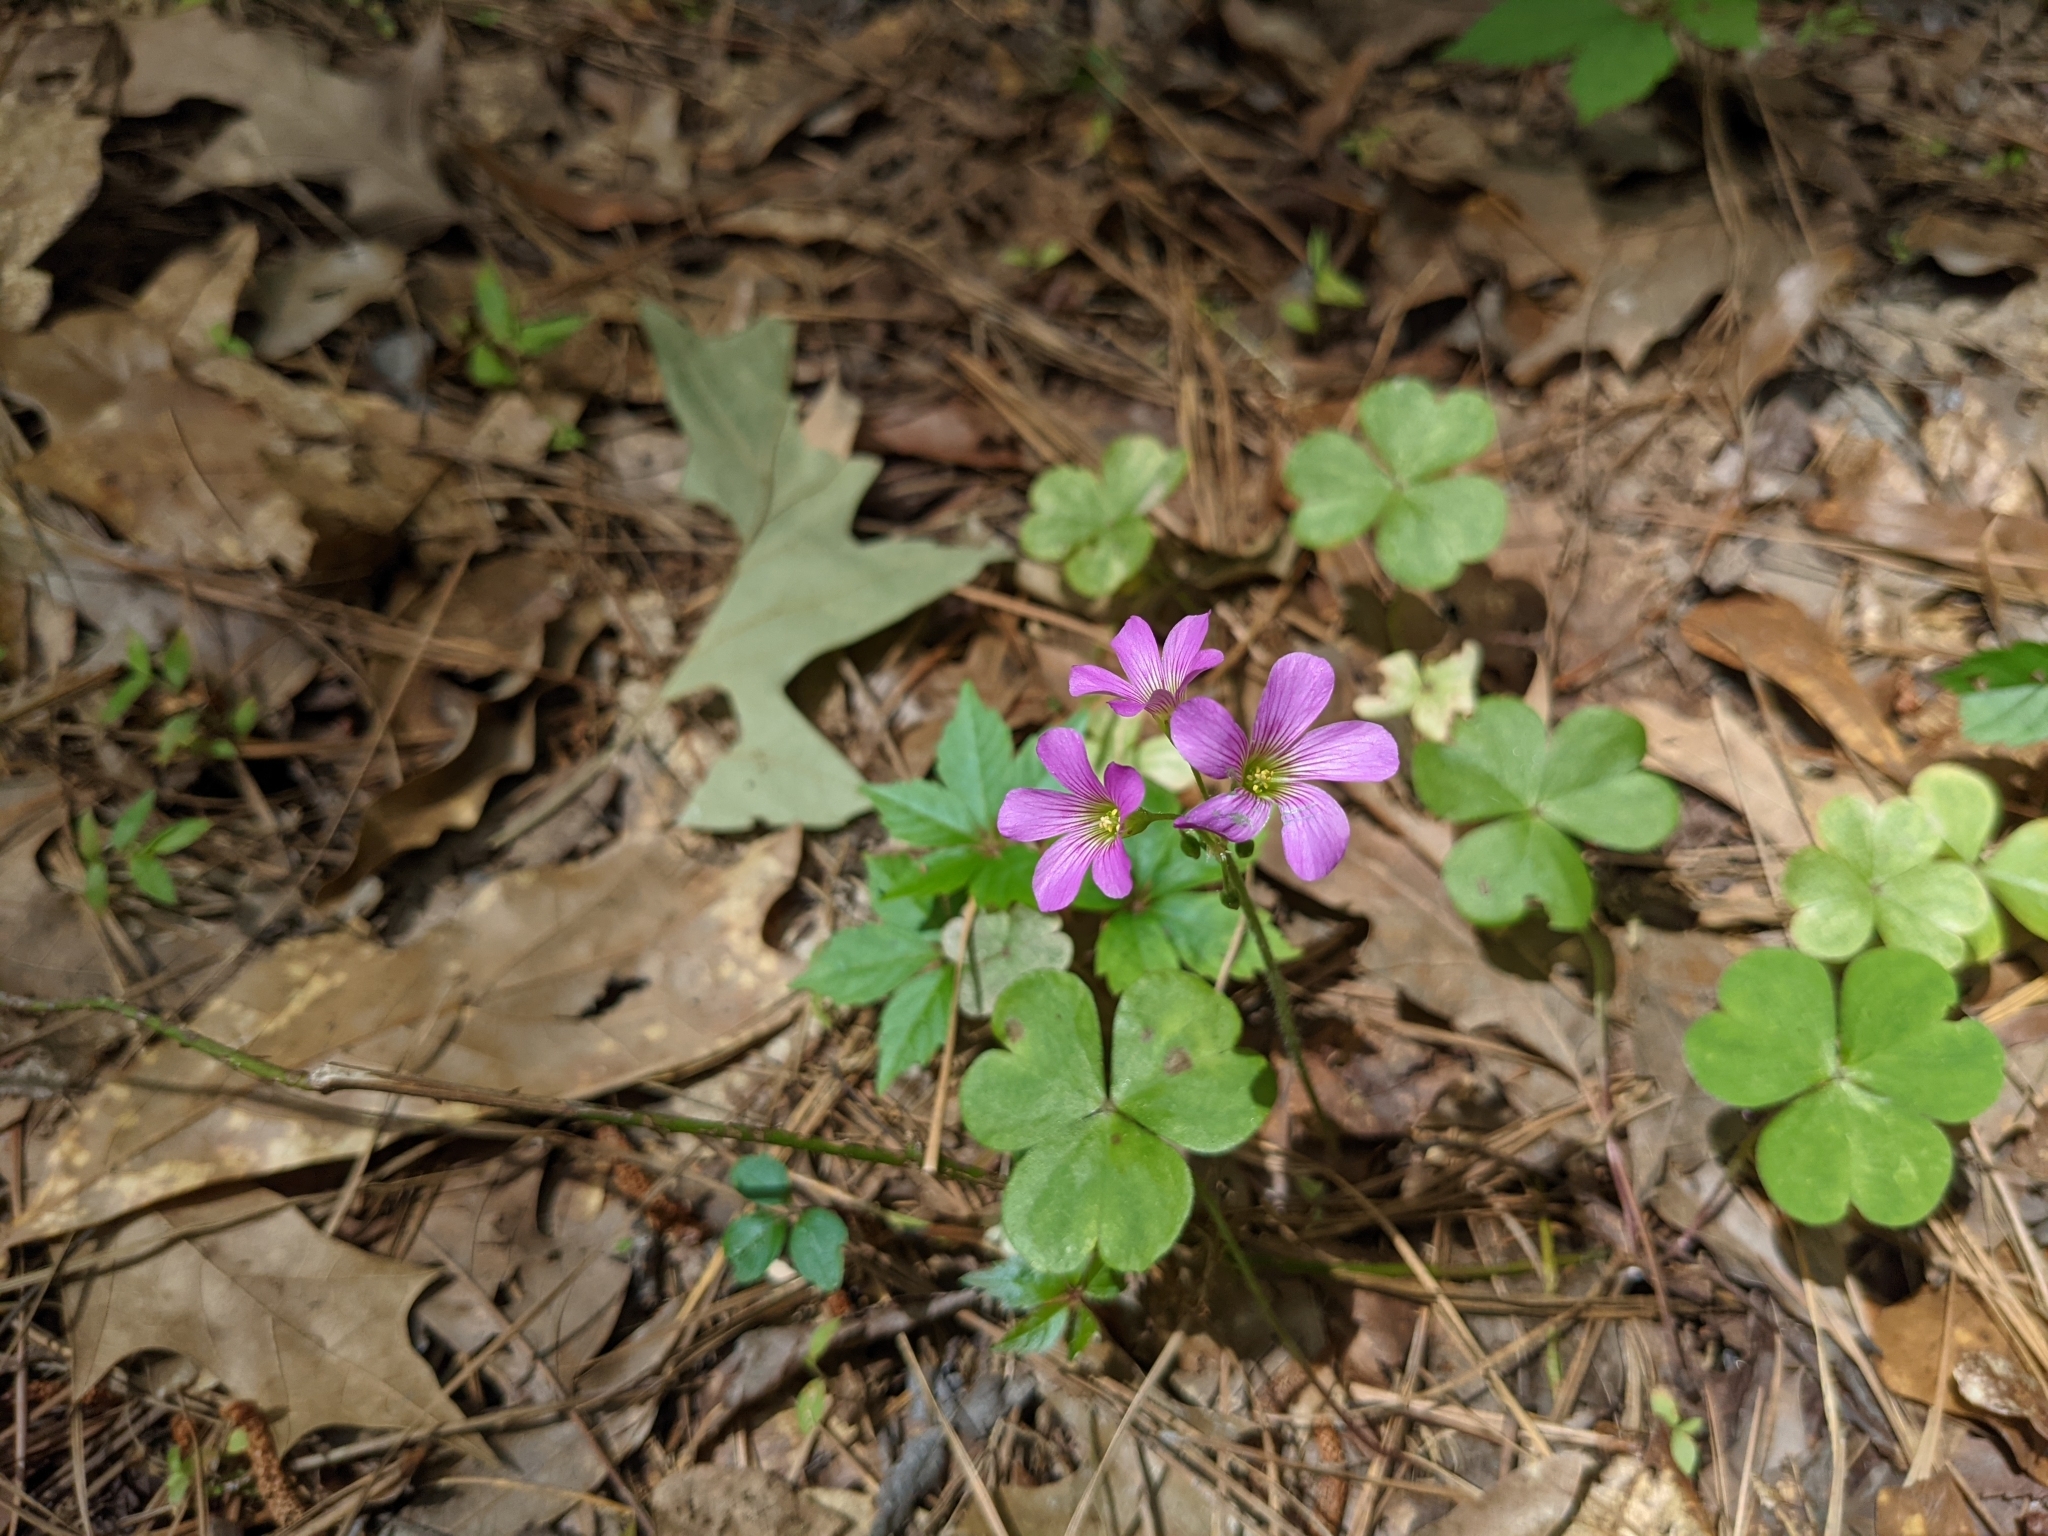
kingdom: Plantae
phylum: Tracheophyta
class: Magnoliopsida
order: Oxalidales
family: Oxalidaceae
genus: Oxalis
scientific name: Oxalis debilis
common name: Large-flowered pink-sorrel
